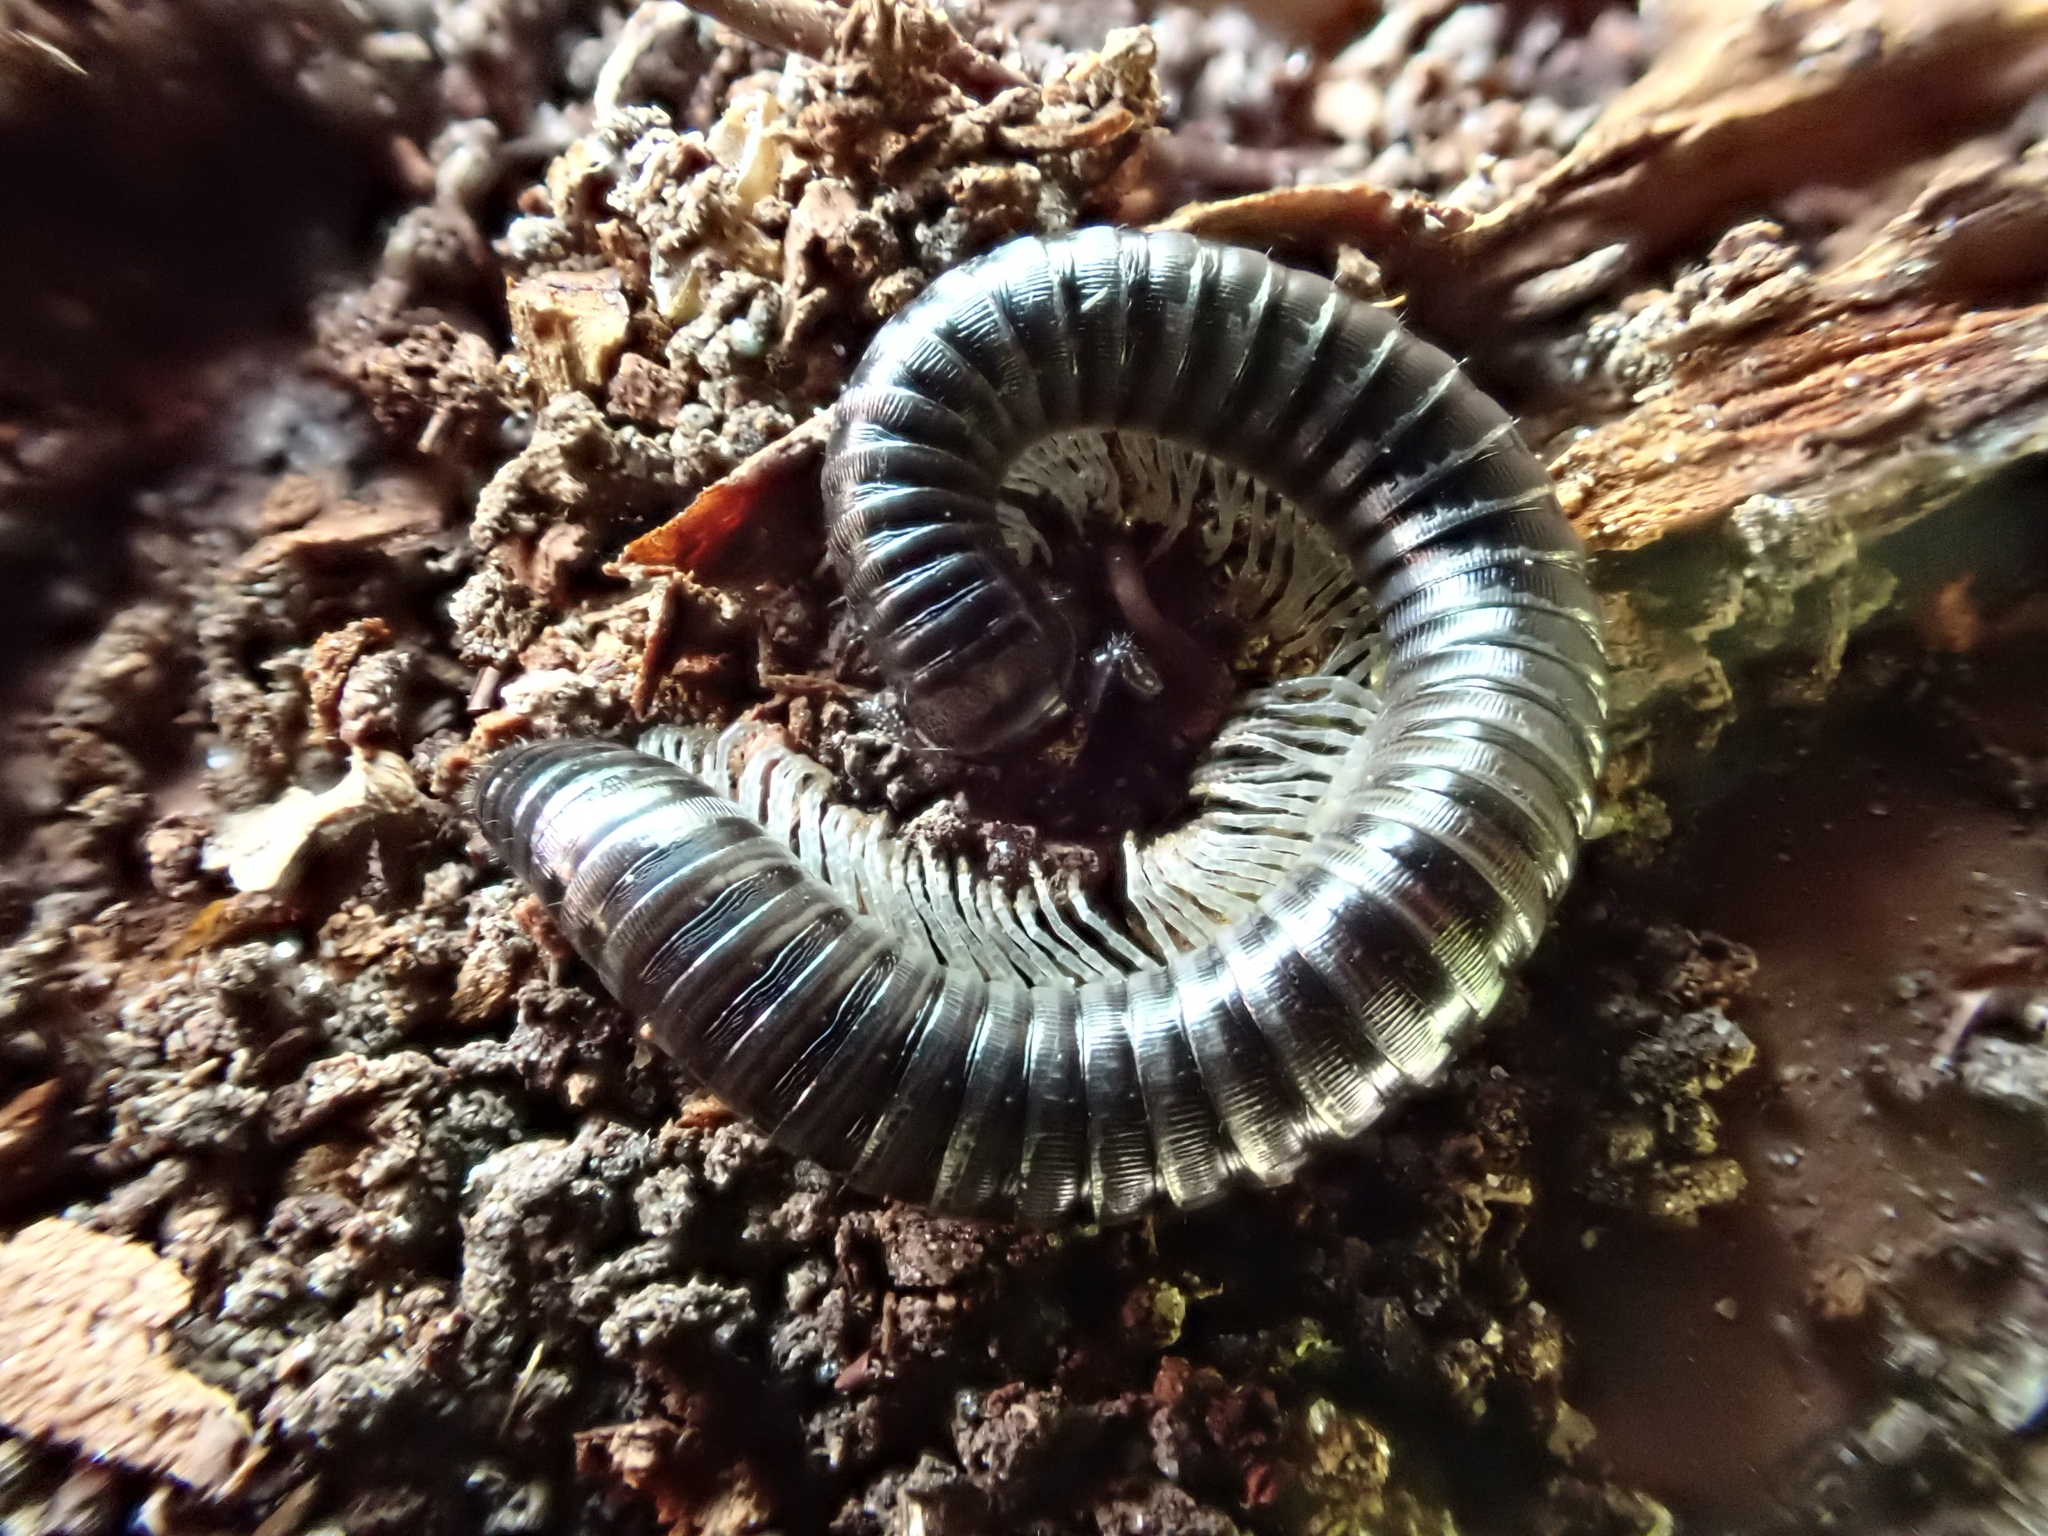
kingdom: Animalia
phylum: Arthropoda
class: Diplopoda
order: Julida
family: Julidae
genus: Tachypodoiulus
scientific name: Tachypodoiulus niger
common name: White-legged snake millipede
